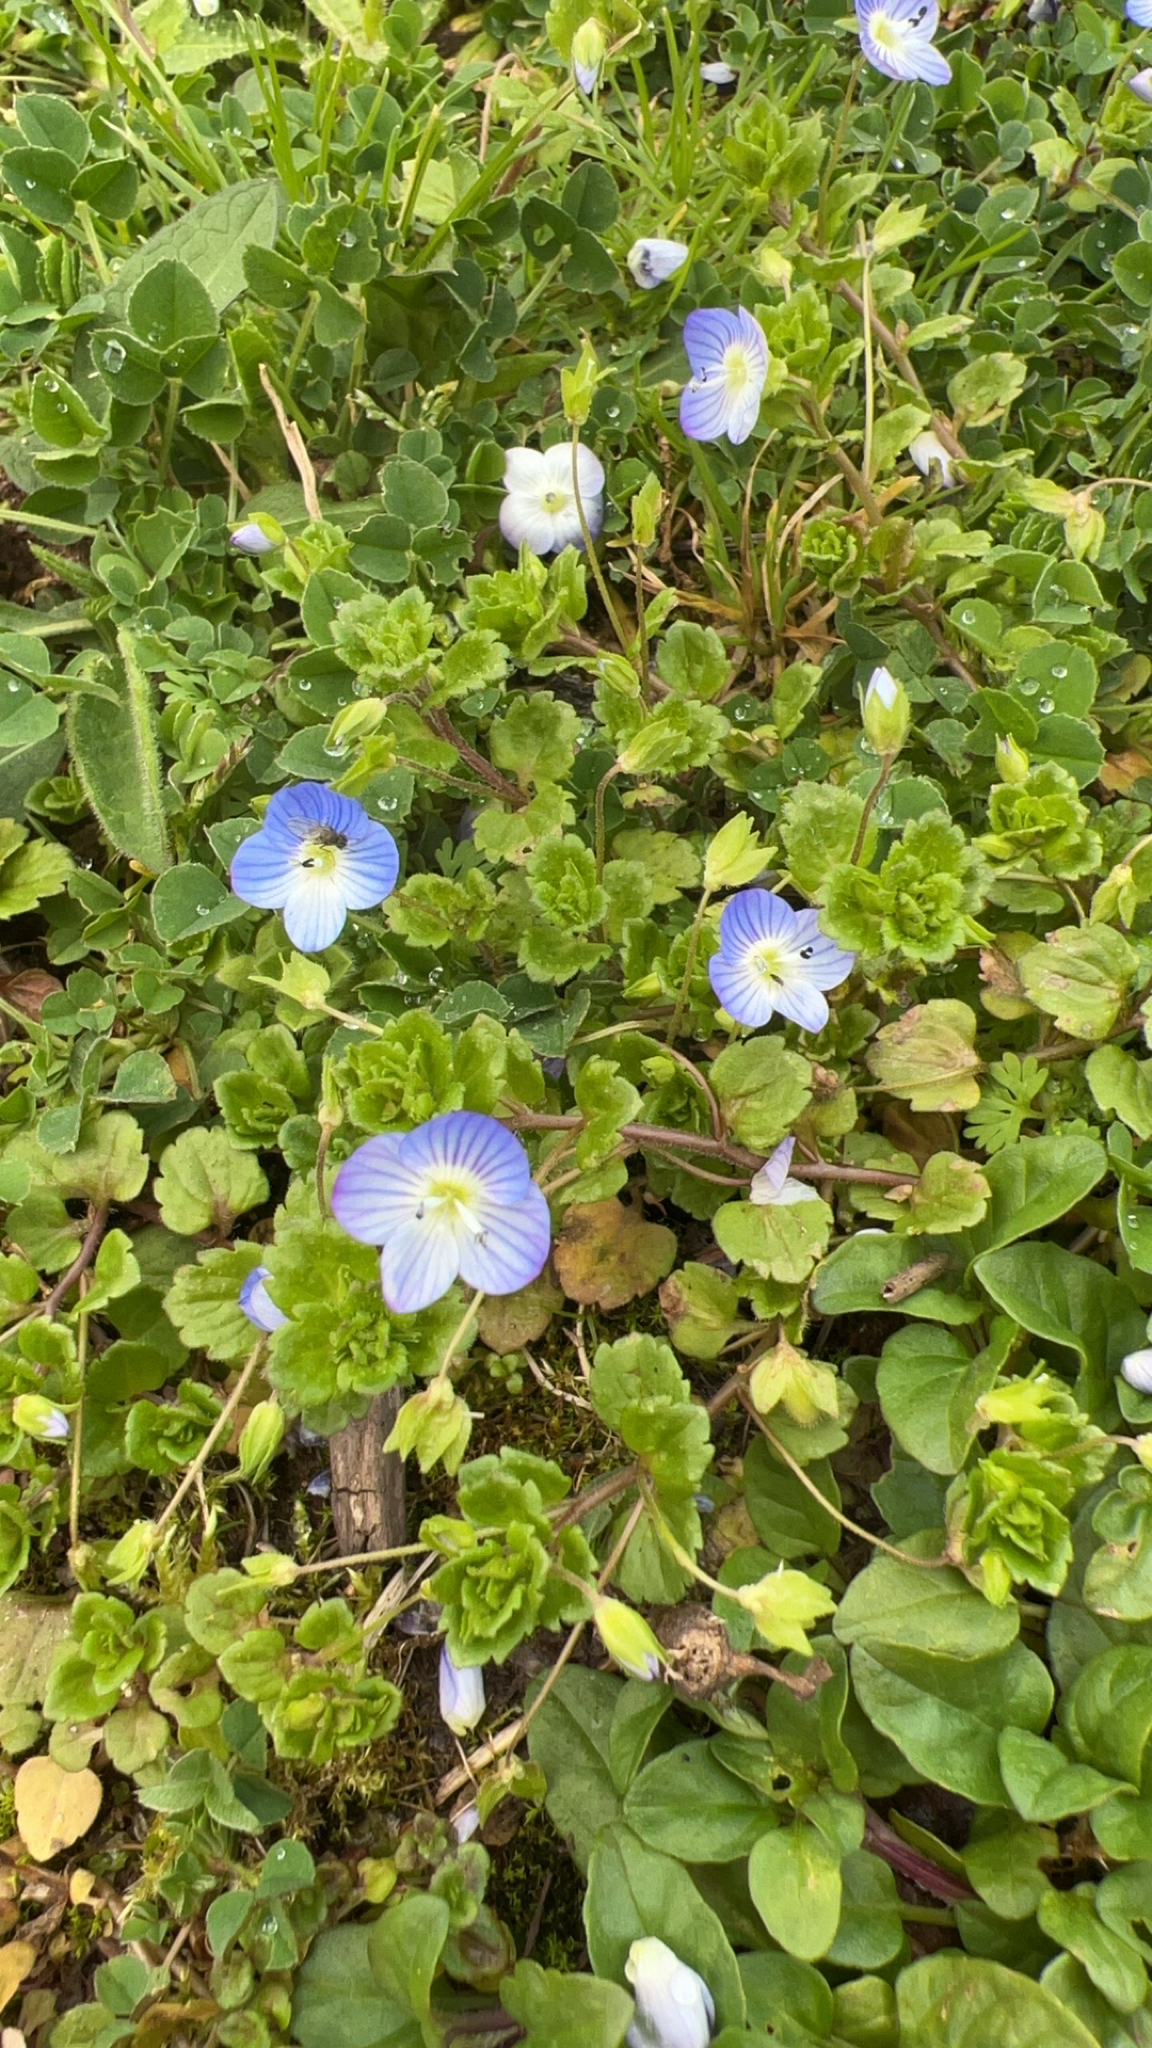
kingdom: Plantae
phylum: Tracheophyta
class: Magnoliopsida
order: Lamiales
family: Plantaginaceae
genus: Veronica
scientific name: Veronica persica
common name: Common field-speedwell
